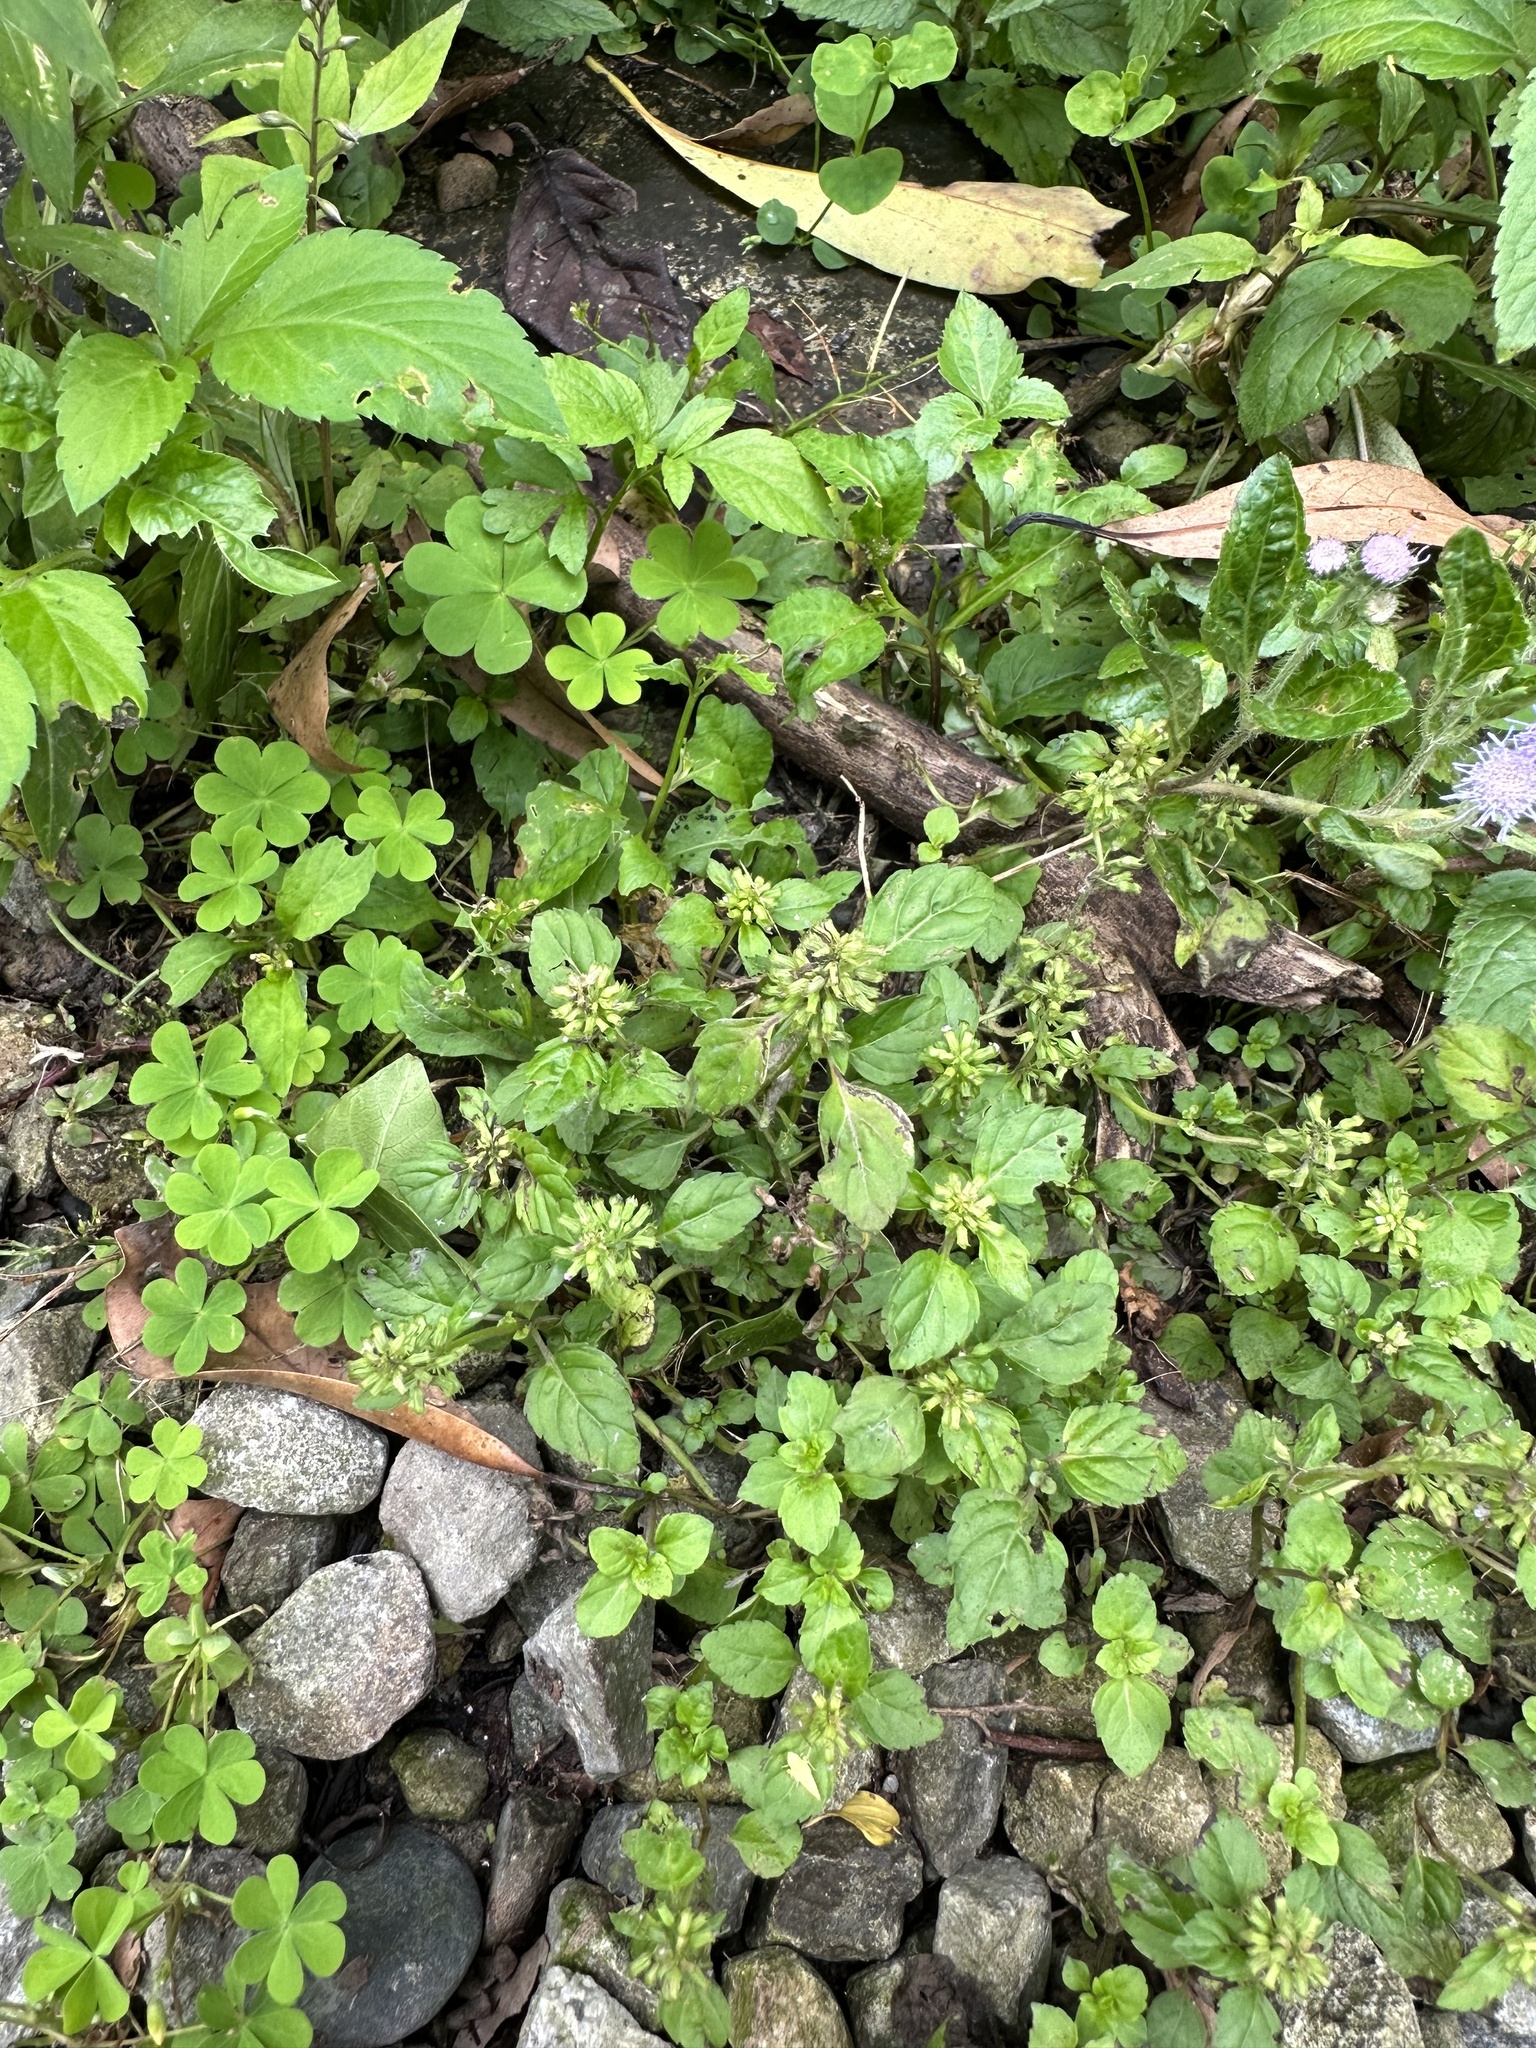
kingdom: Plantae
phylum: Tracheophyta
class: Magnoliopsida
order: Lamiales
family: Lamiaceae
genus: Clinopodium
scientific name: Clinopodium gracile
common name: Slender wild basil
